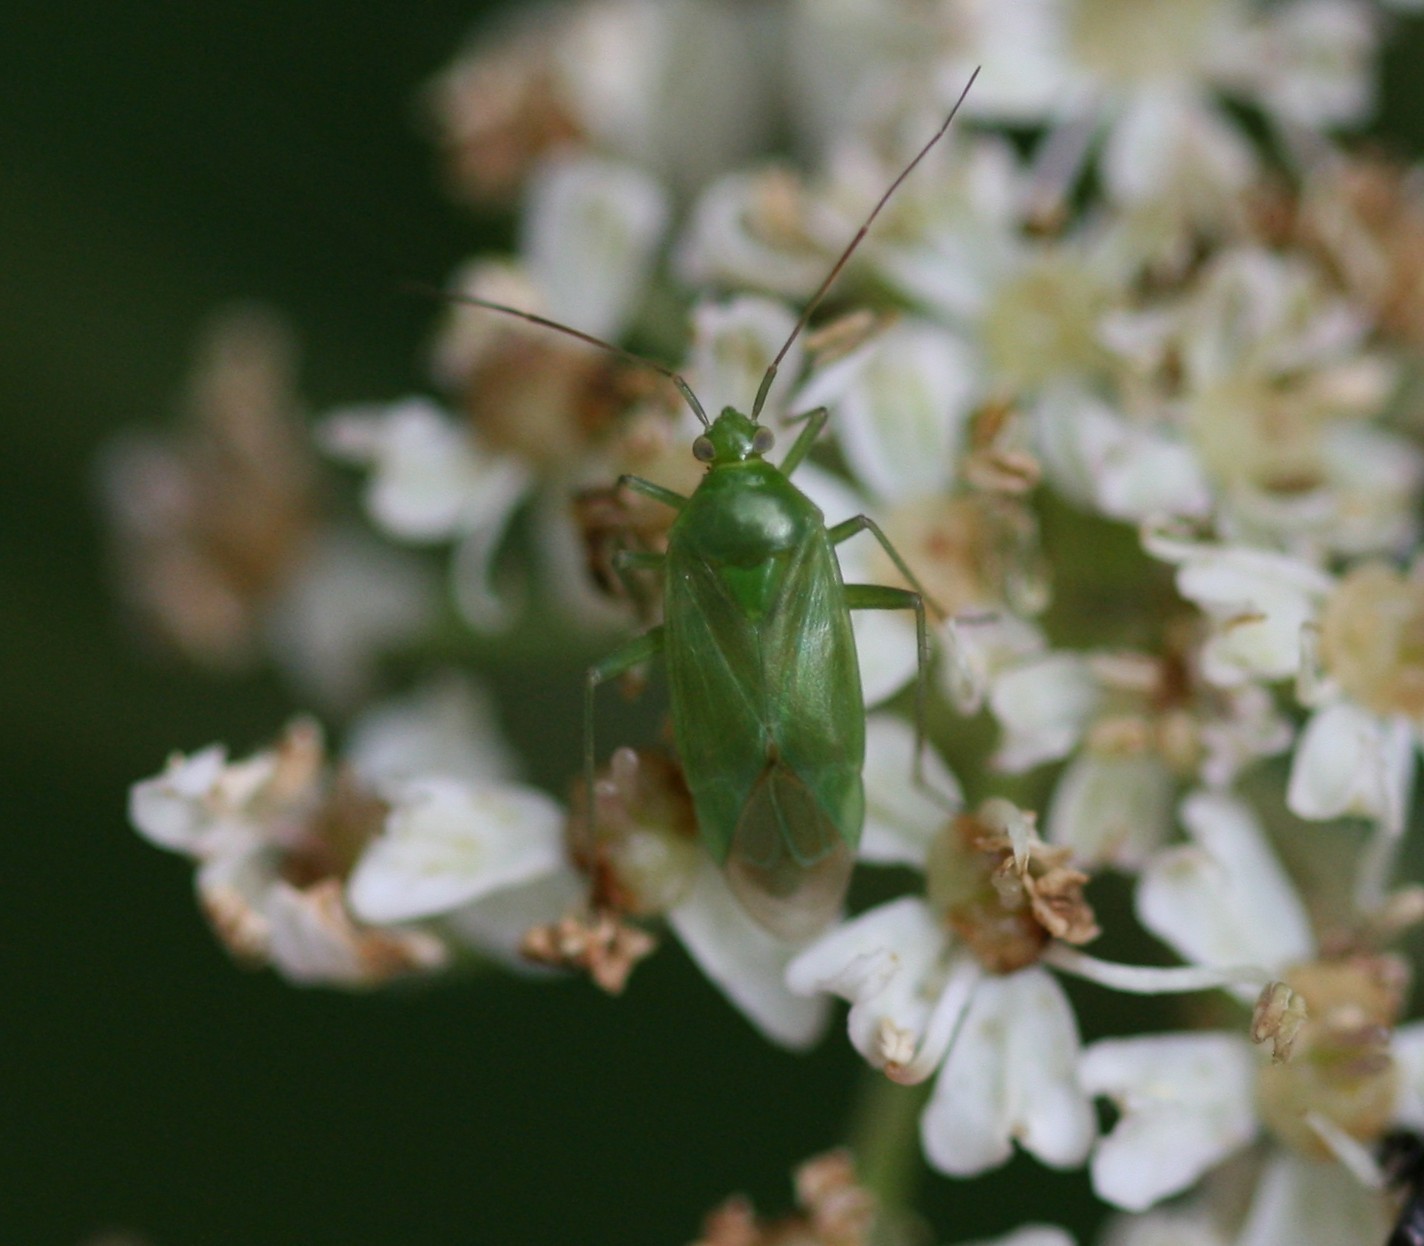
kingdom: Animalia
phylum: Arthropoda
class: Insecta
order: Hemiptera
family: Miridae
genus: Lygocoris
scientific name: Lygocoris pabulinus
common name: Common green capsid
